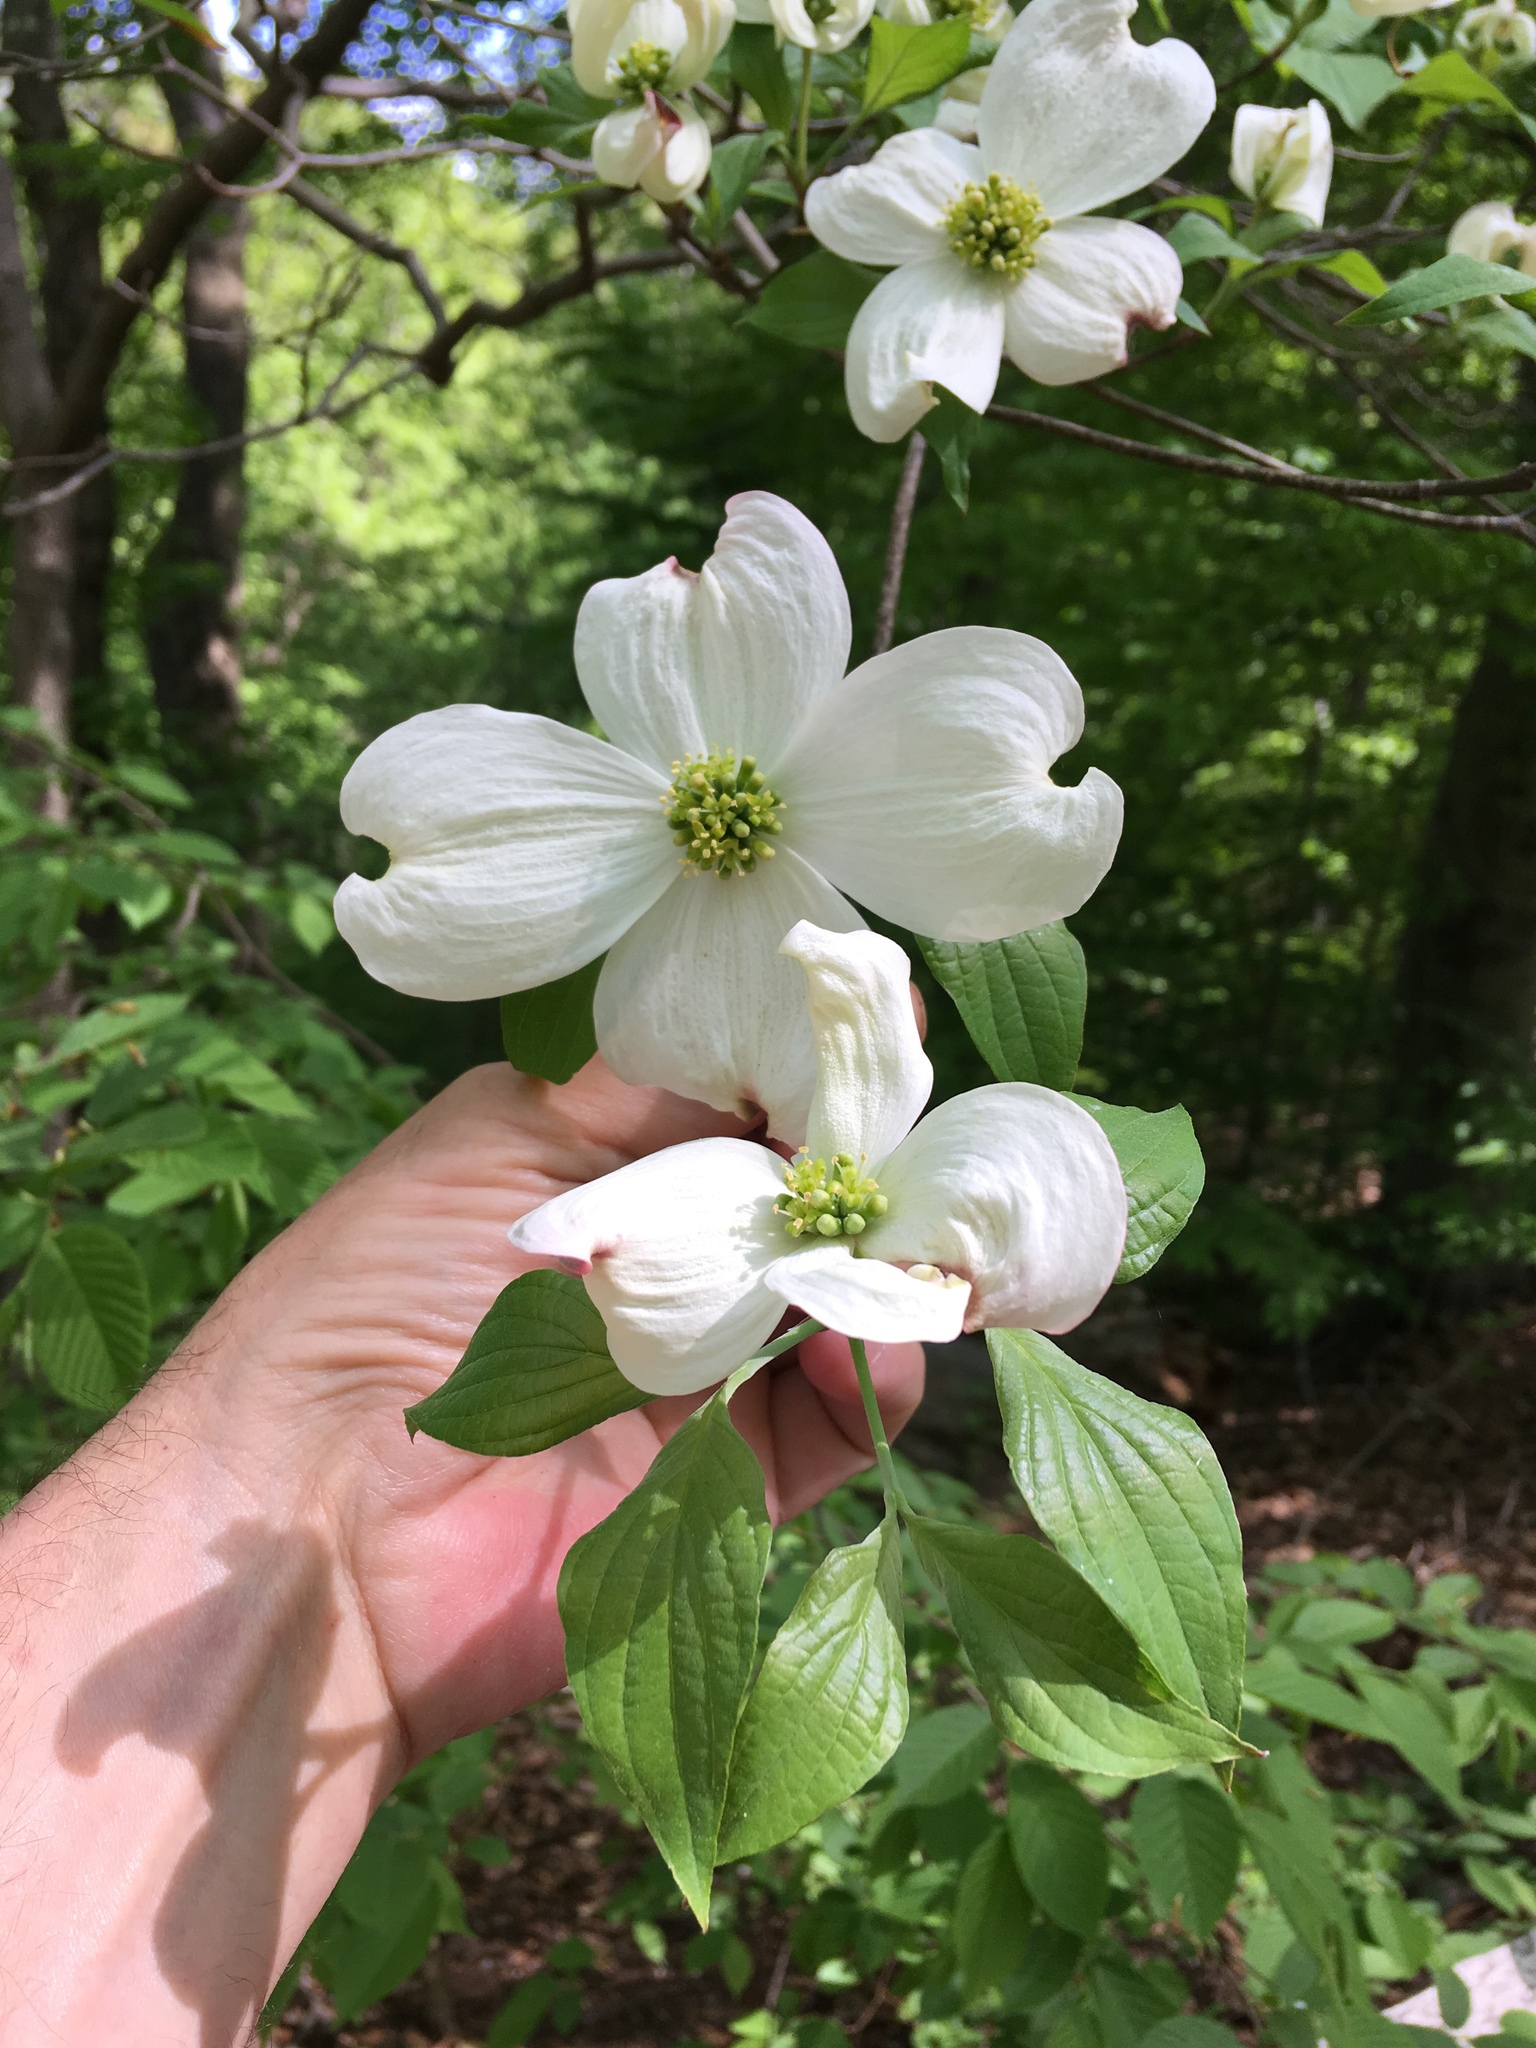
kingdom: Plantae
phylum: Tracheophyta
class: Magnoliopsida
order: Cornales
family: Cornaceae
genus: Cornus
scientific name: Cornus florida
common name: Flowering dogwood
